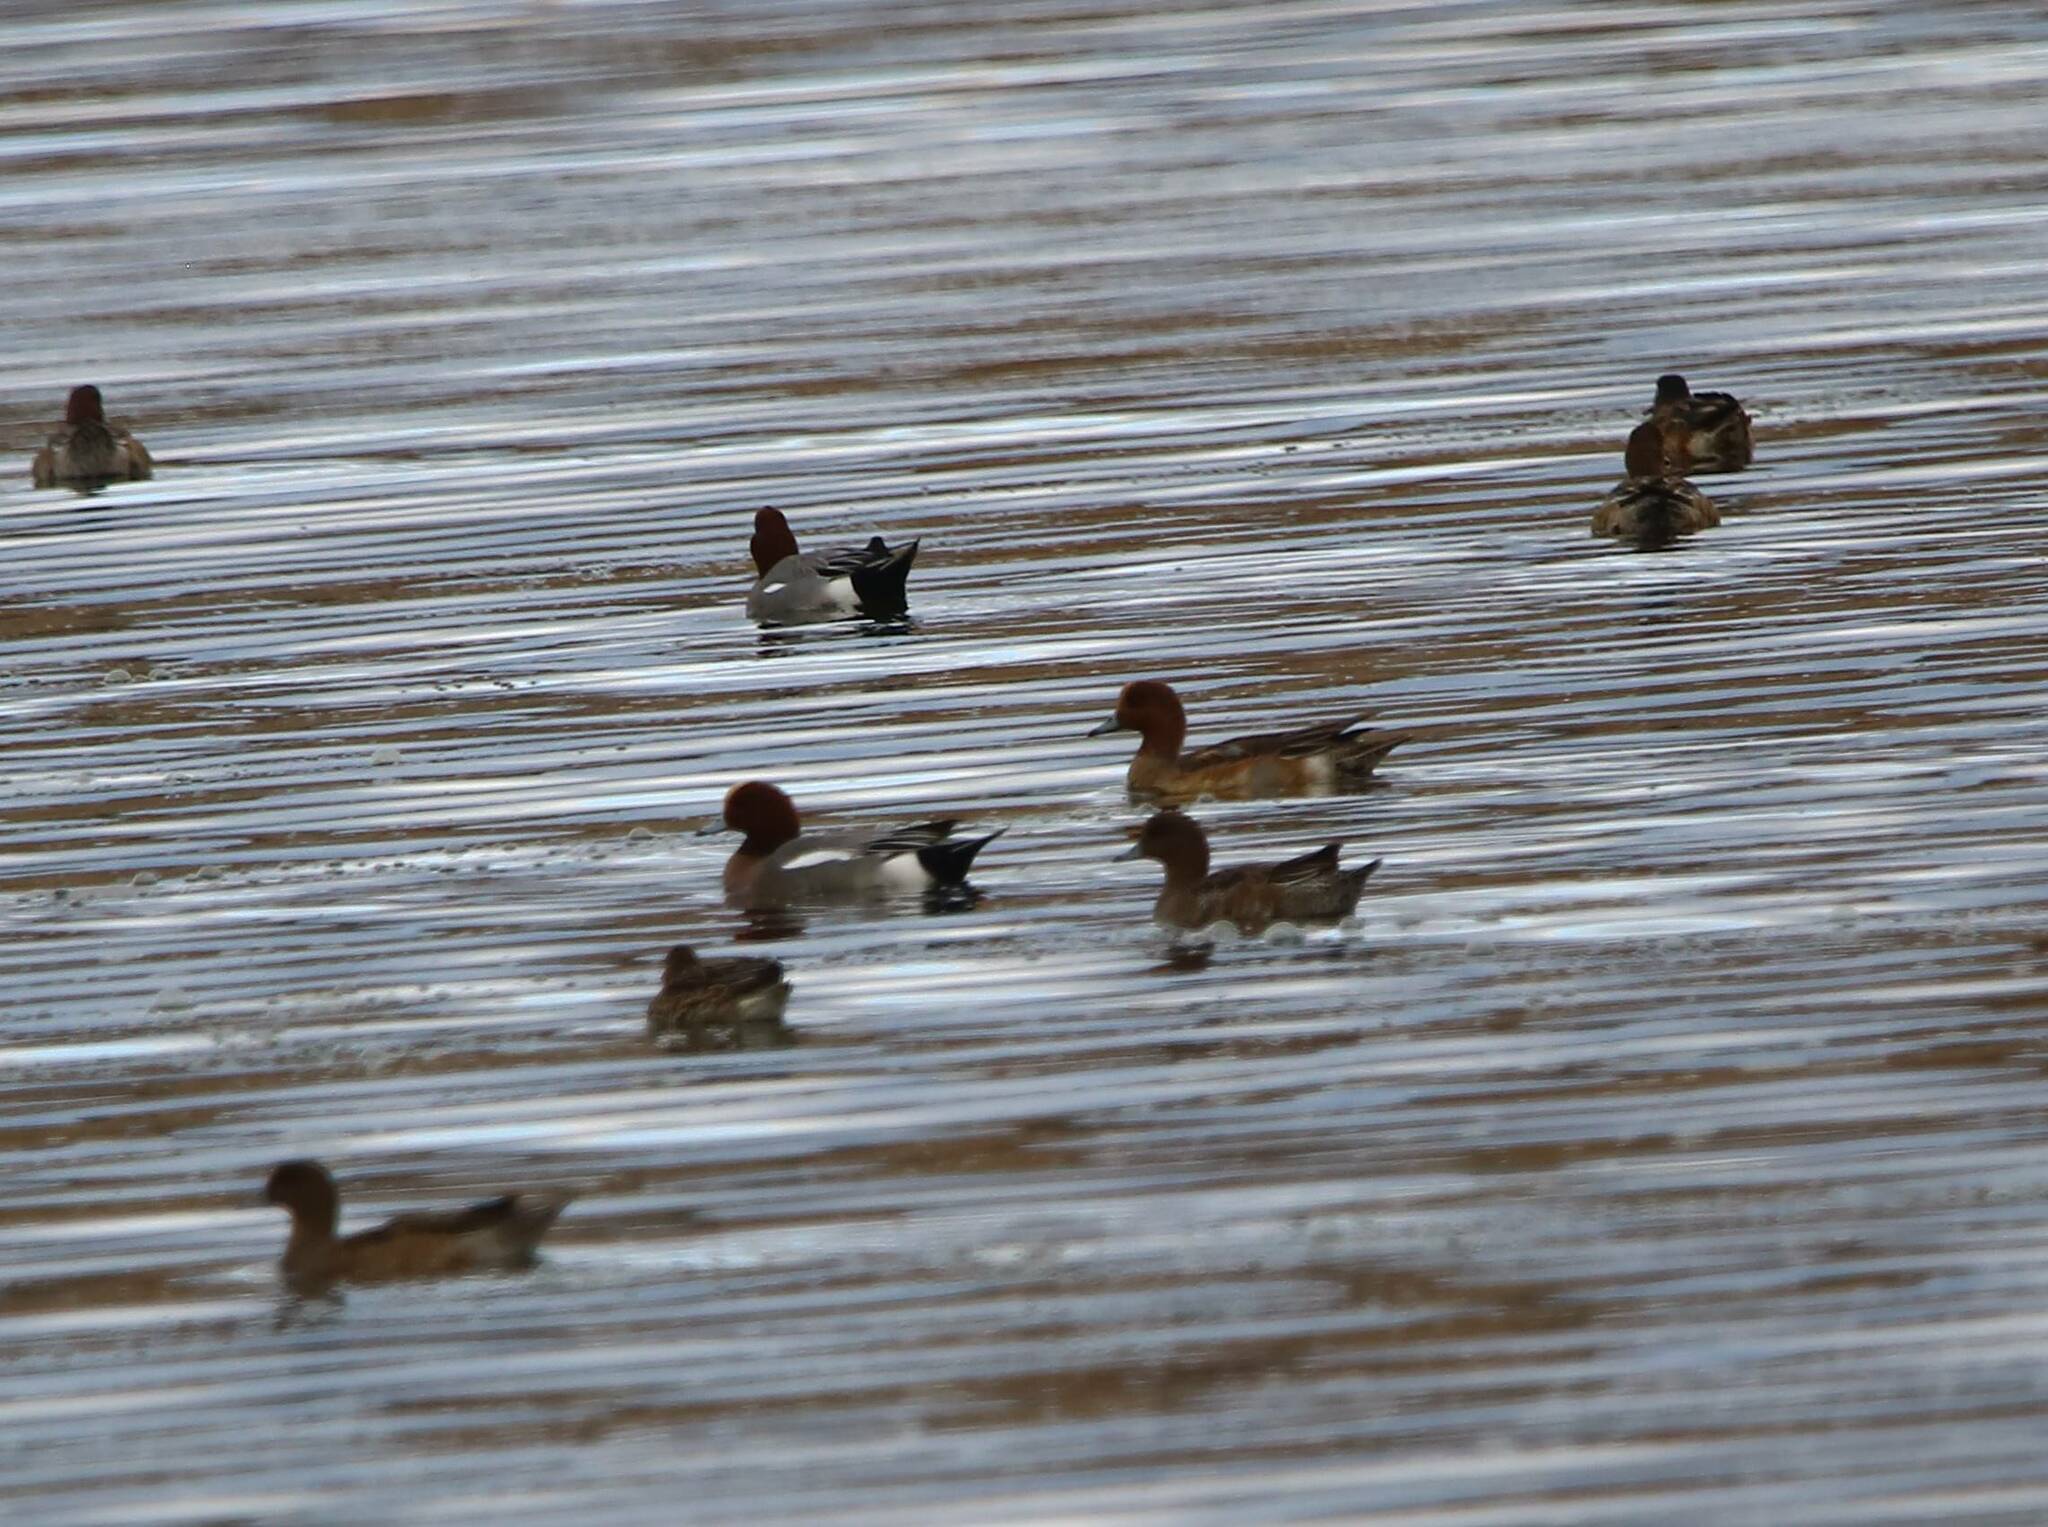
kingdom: Animalia
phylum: Chordata
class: Aves
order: Anseriformes
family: Anatidae
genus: Mareca
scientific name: Mareca penelope
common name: Eurasian wigeon
